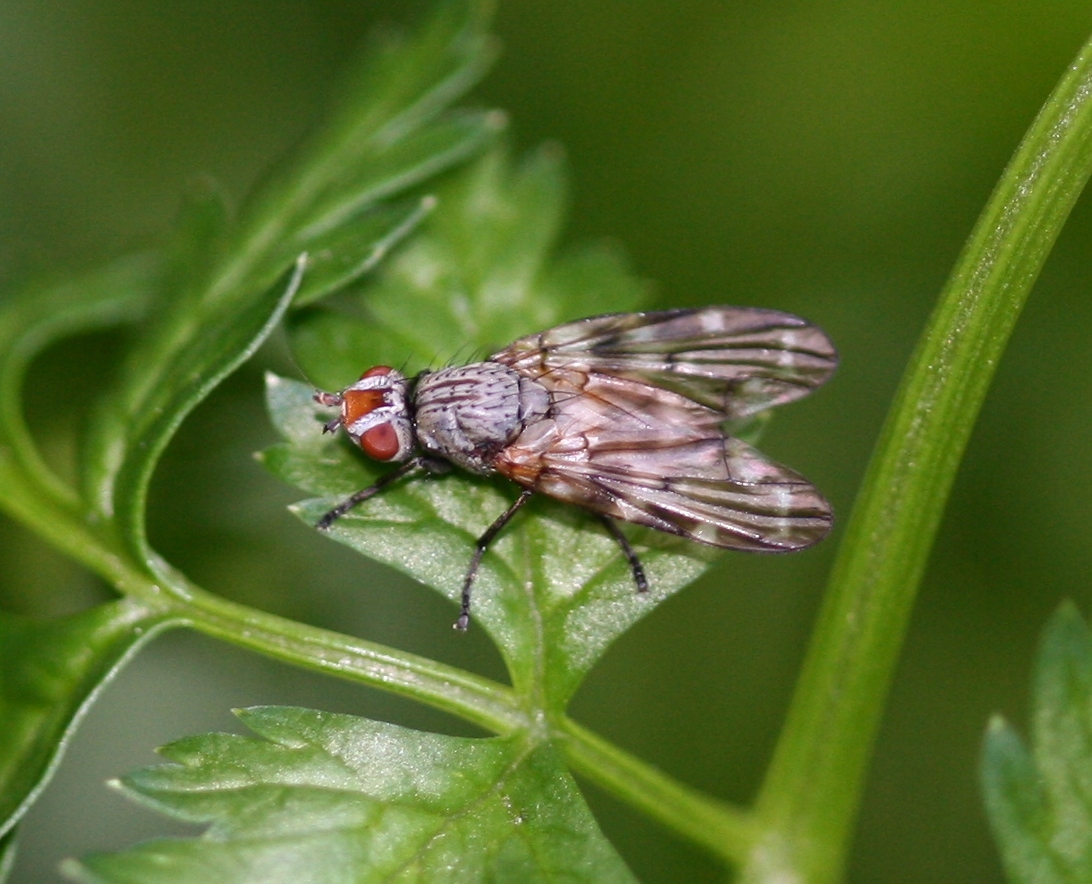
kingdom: Animalia
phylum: Arthropoda
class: Insecta
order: Diptera
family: Ulidiidae
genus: Otites
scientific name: Otites guttata
